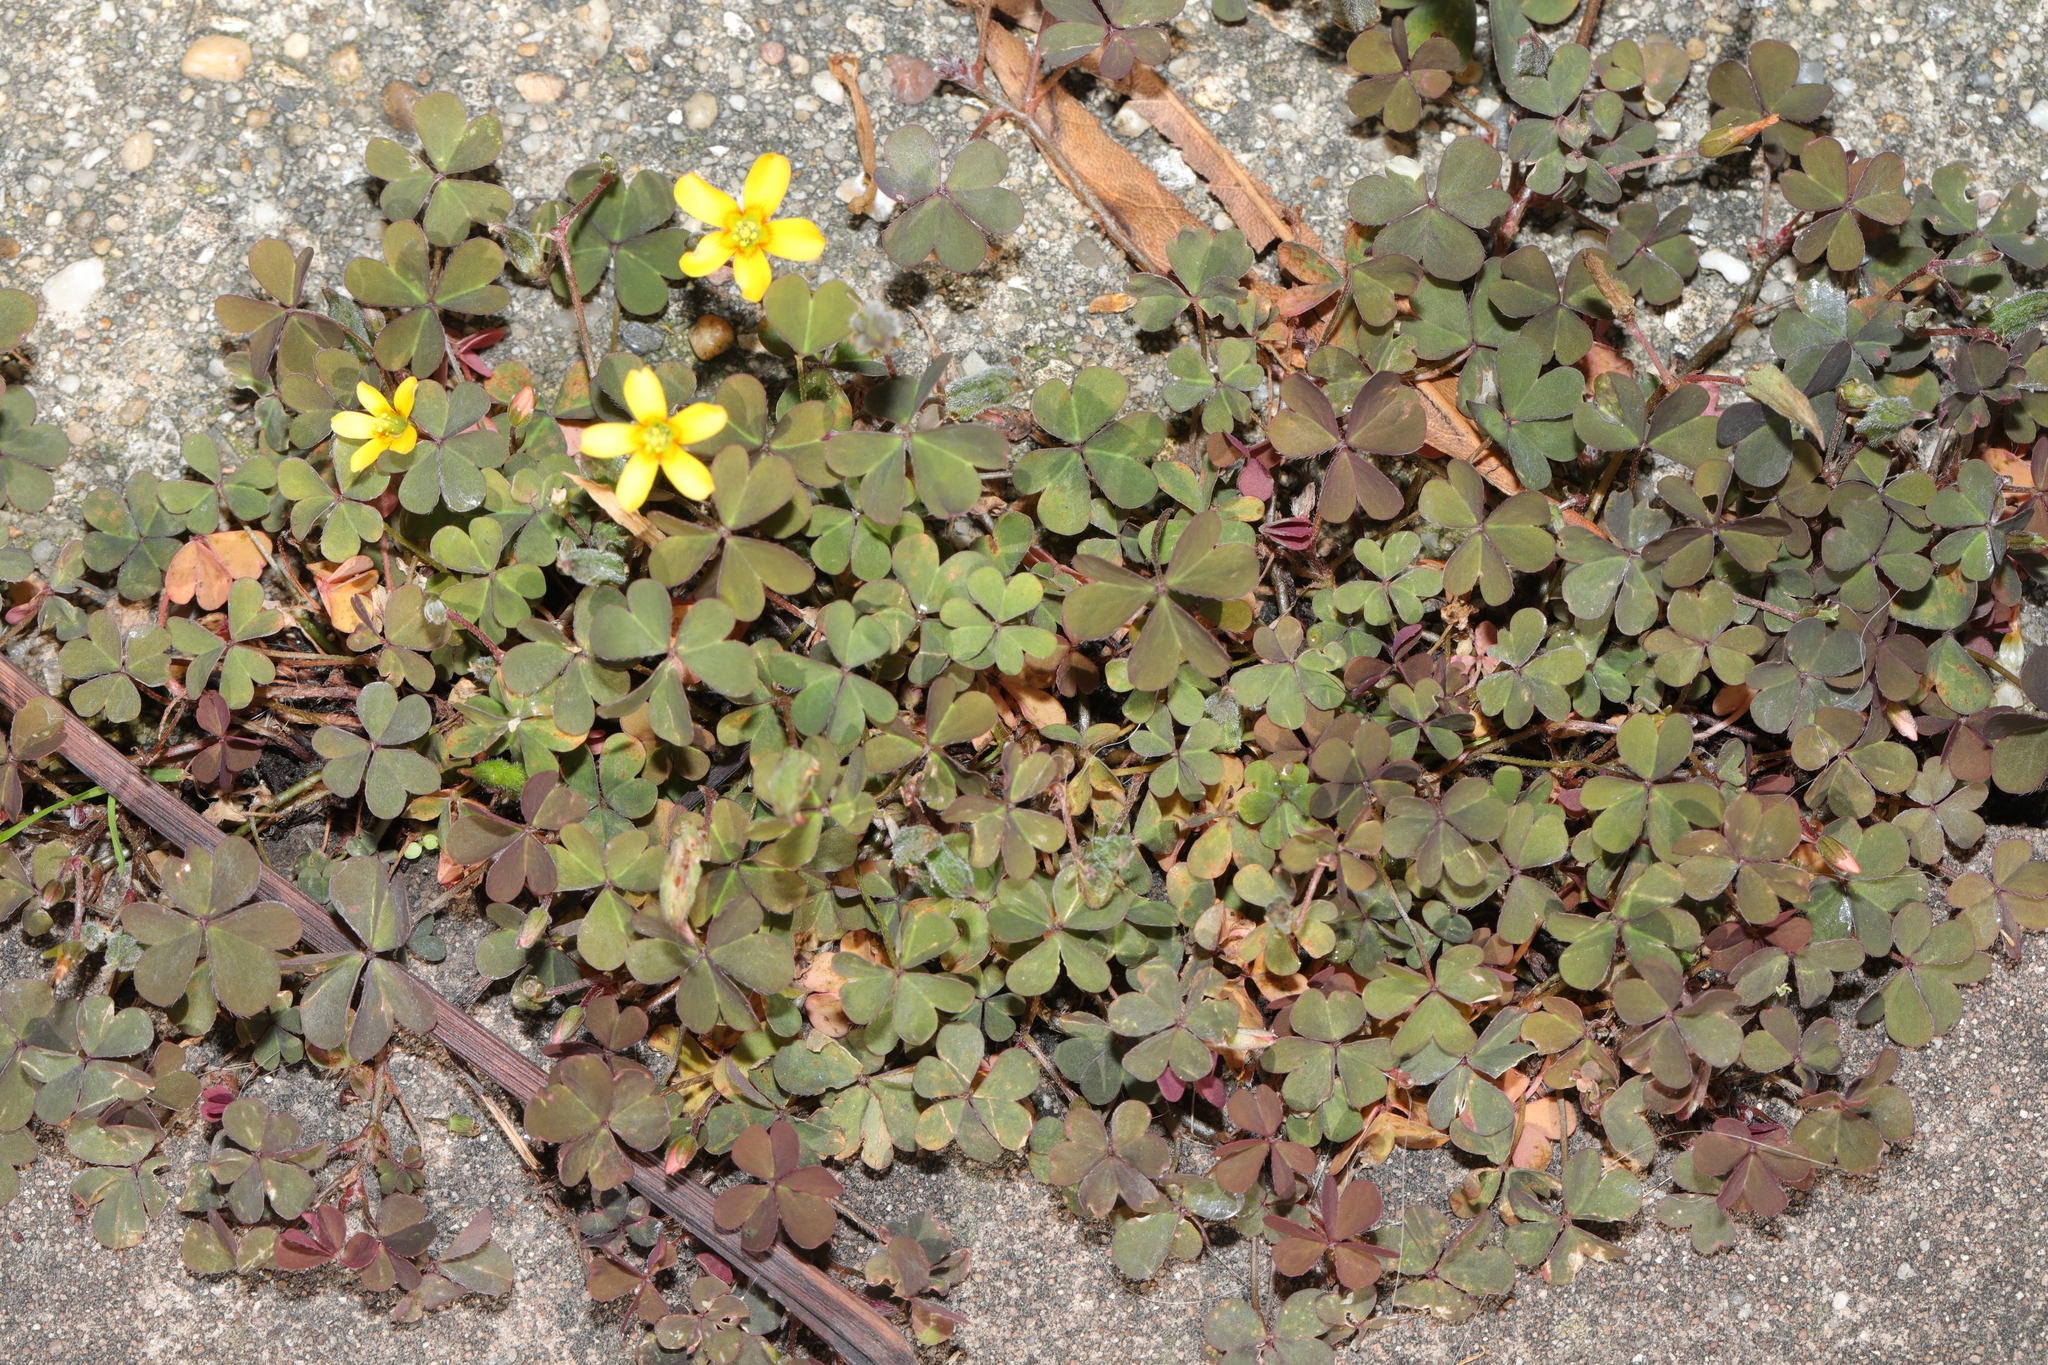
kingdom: Plantae
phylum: Tracheophyta
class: Magnoliopsida
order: Oxalidales
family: Oxalidaceae
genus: Oxalis
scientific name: Oxalis corniculata
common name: Procumbent yellow-sorrel
